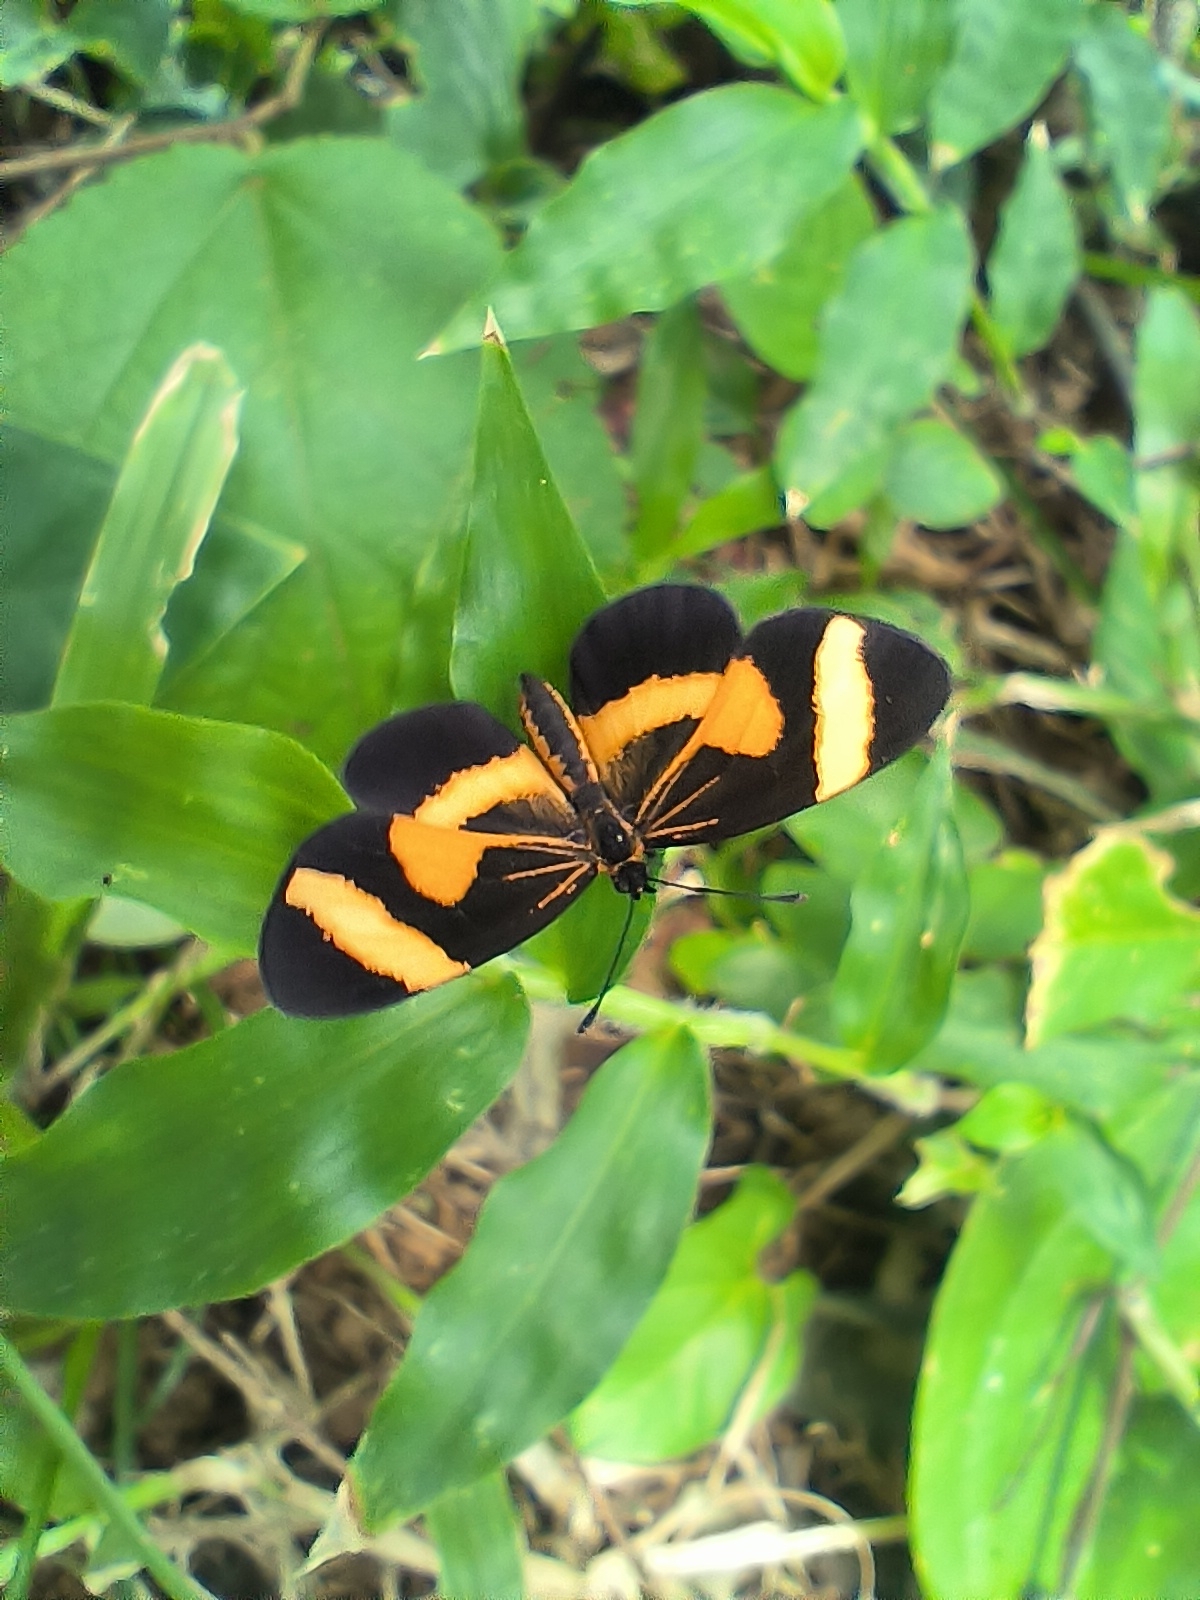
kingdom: Animalia
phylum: Arthropoda
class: Insecta
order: Lepidoptera
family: Nymphalidae
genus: Microtia
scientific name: Microtia elva
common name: Elf
